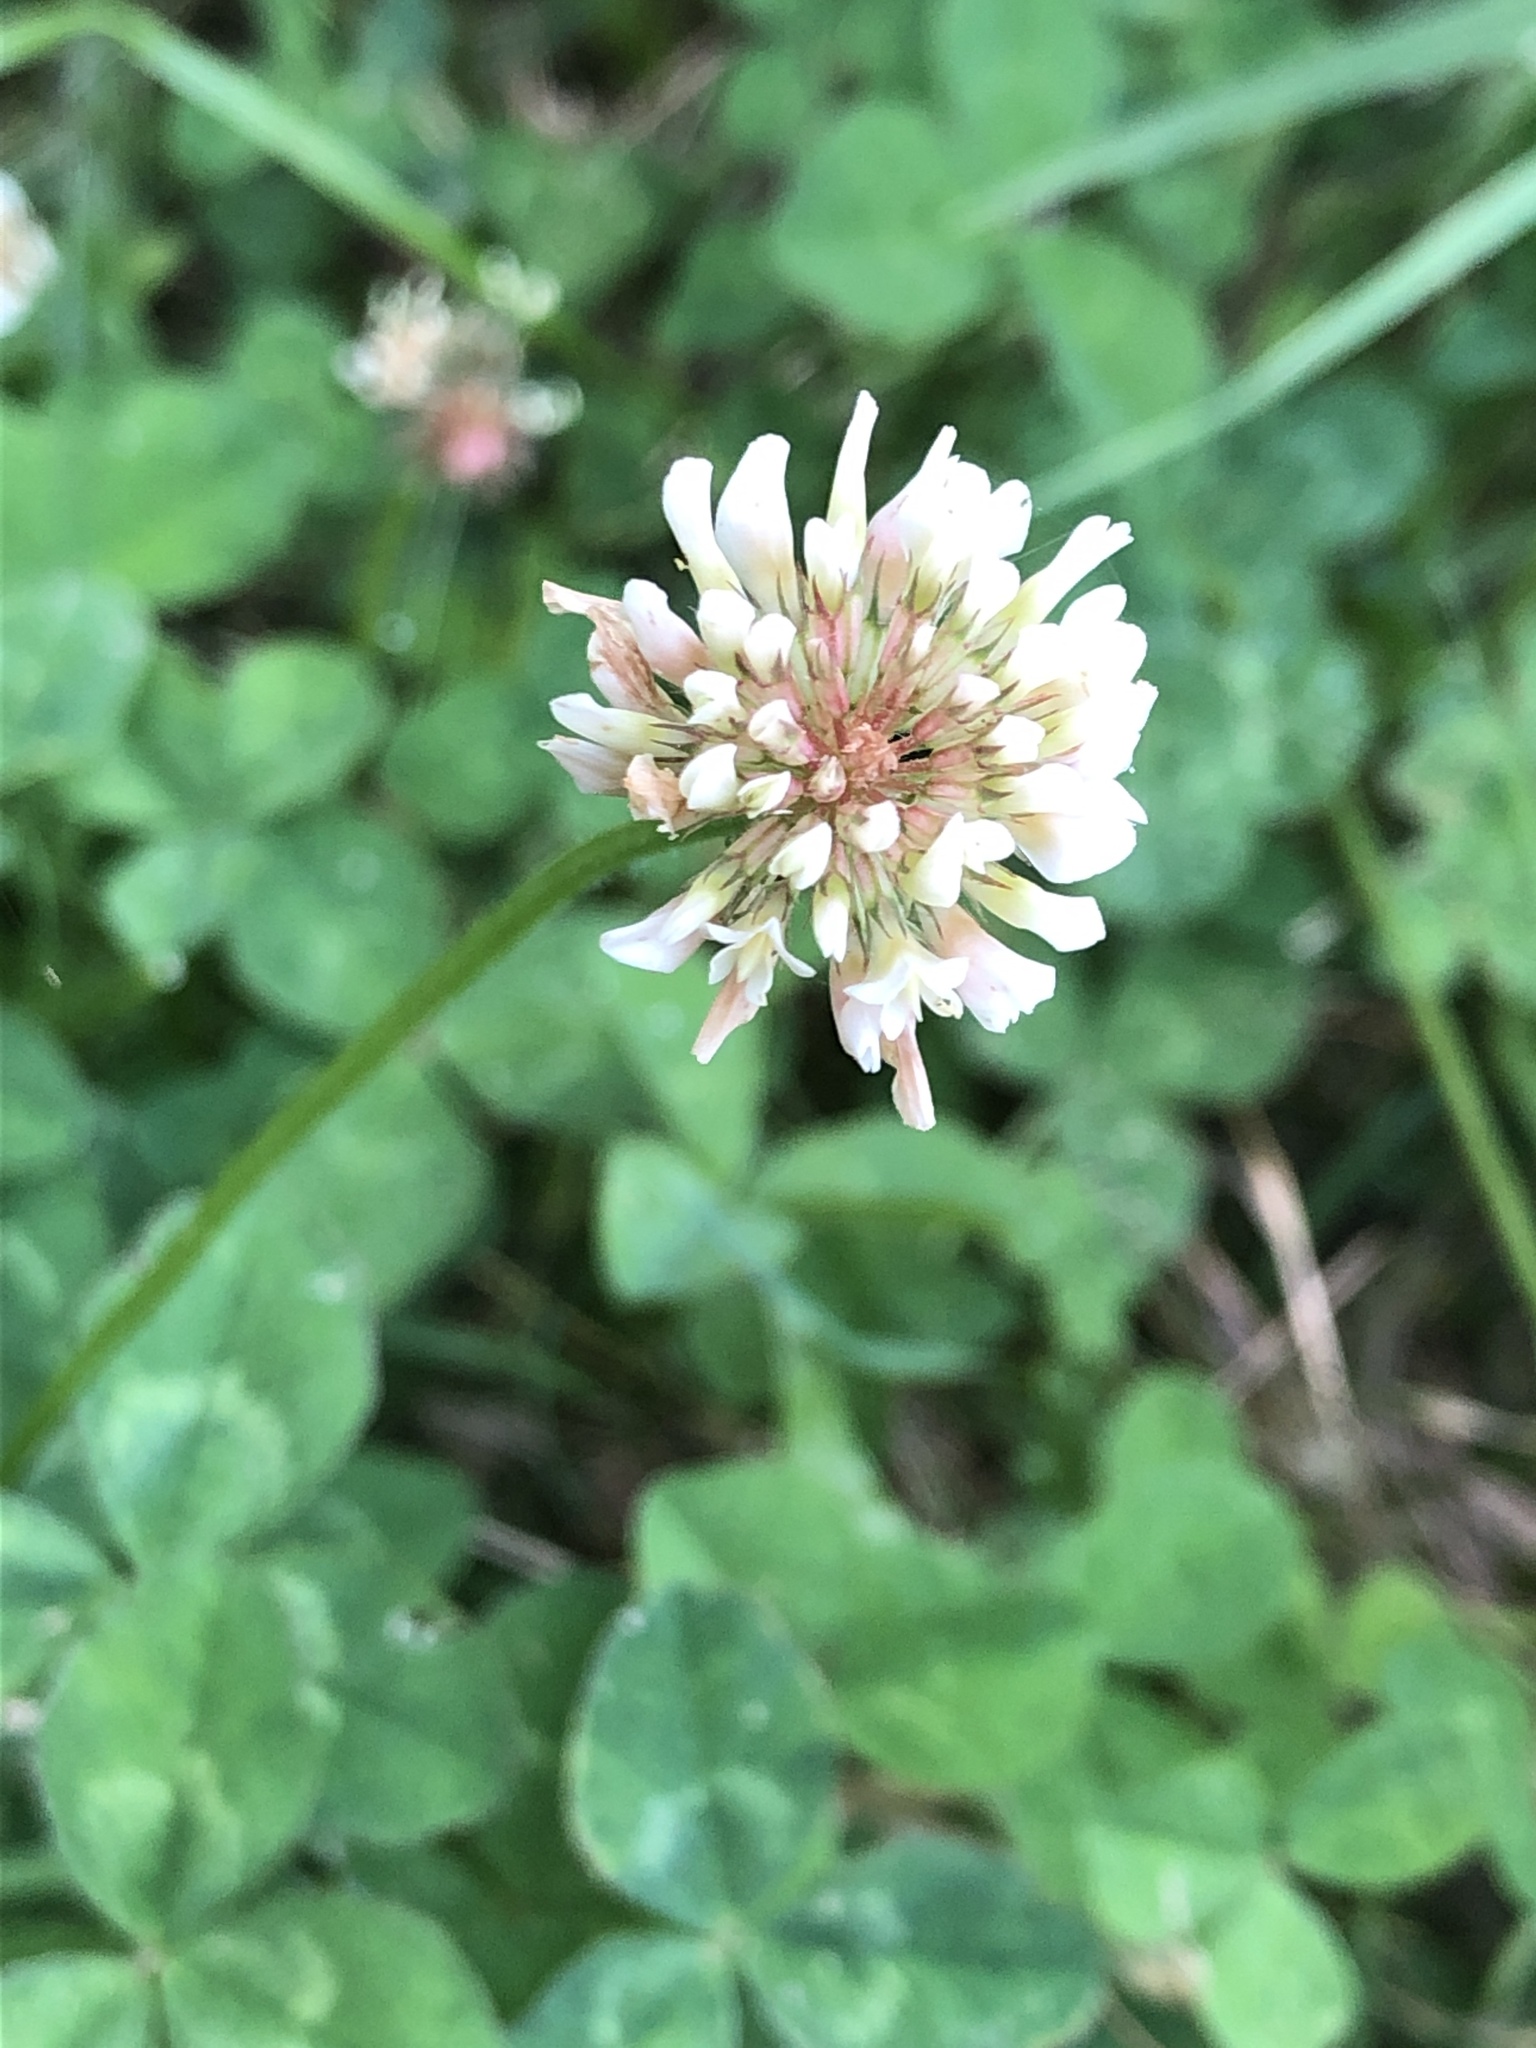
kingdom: Plantae
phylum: Tracheophyta
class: Magnoliopsida
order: Fabales
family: Fabaceae
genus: Trifolium
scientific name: Trifolium repens
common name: White clover
